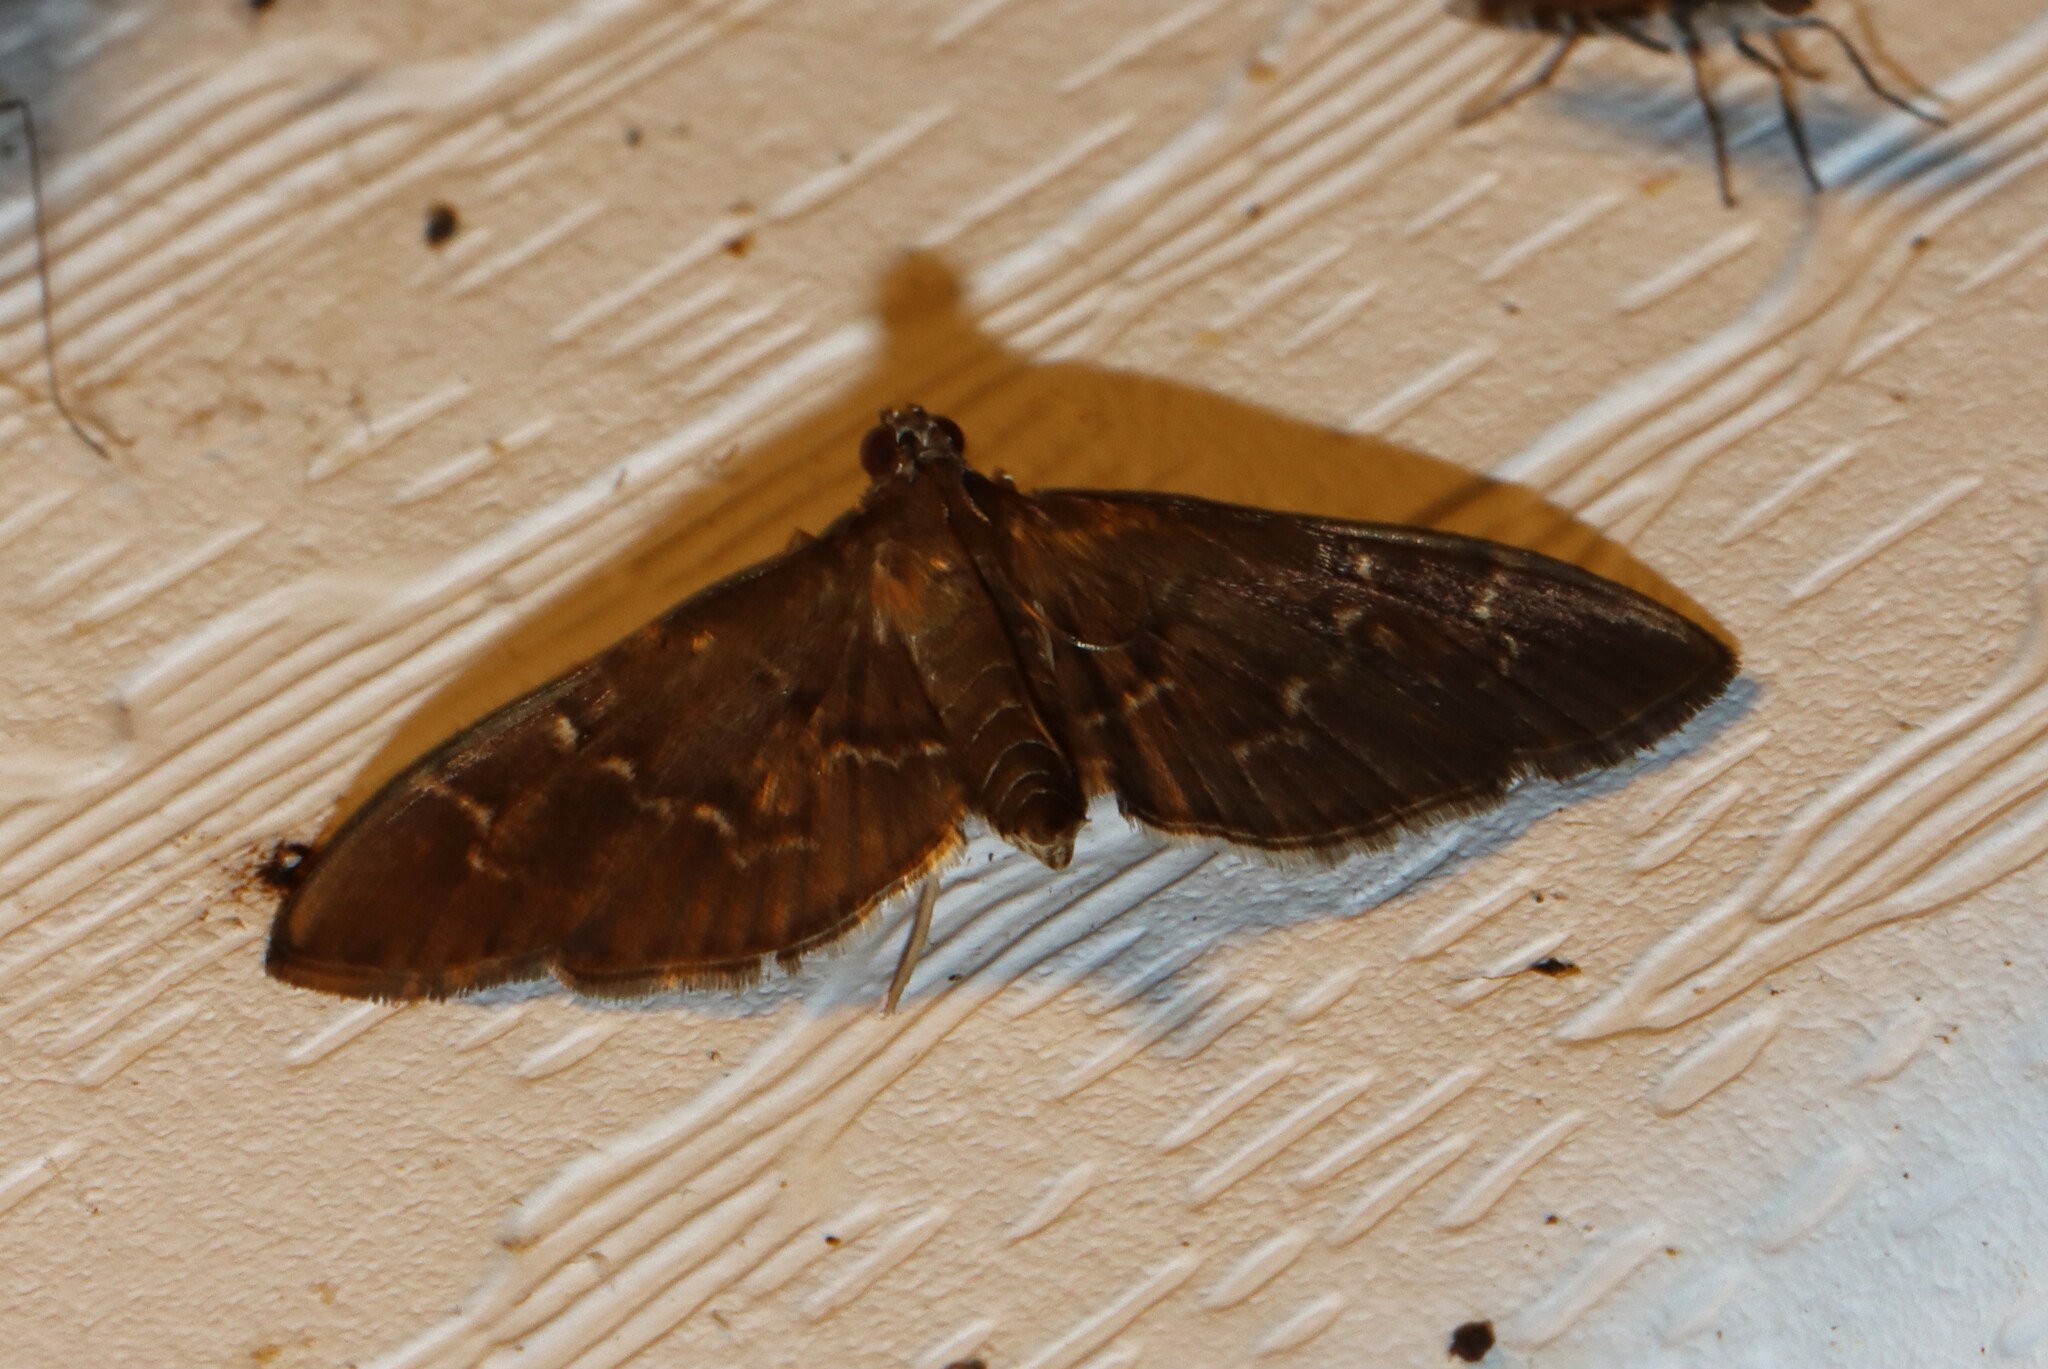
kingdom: Animalia
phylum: Arthropoda
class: Insecta
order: Lepidoptera
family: Crambidae
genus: Pilocrocis
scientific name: Pilocrocis ramentalis
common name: Scraped pilocrocis
